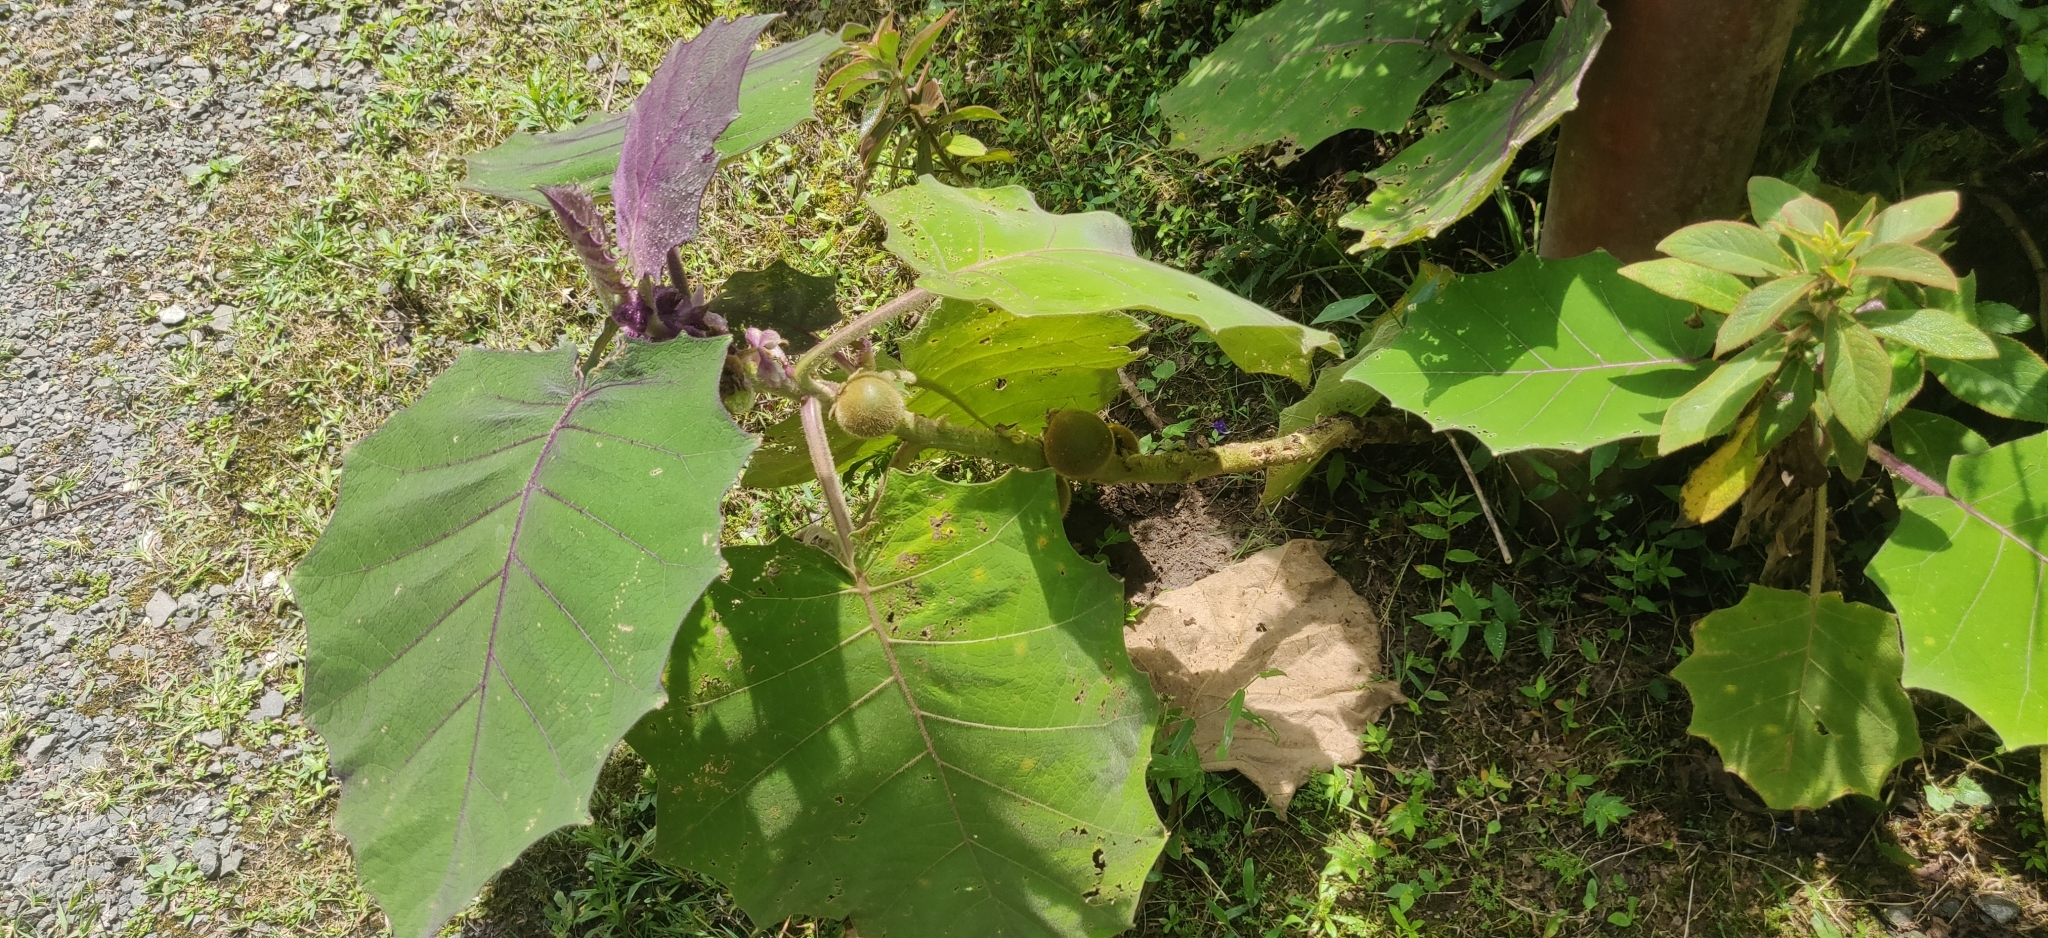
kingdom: Plantae
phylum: Tracheophyta
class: Magnoliopsida
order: Solanales
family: Solanaceae
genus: Solanum
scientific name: Solanum quitoense
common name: Quito-orange
